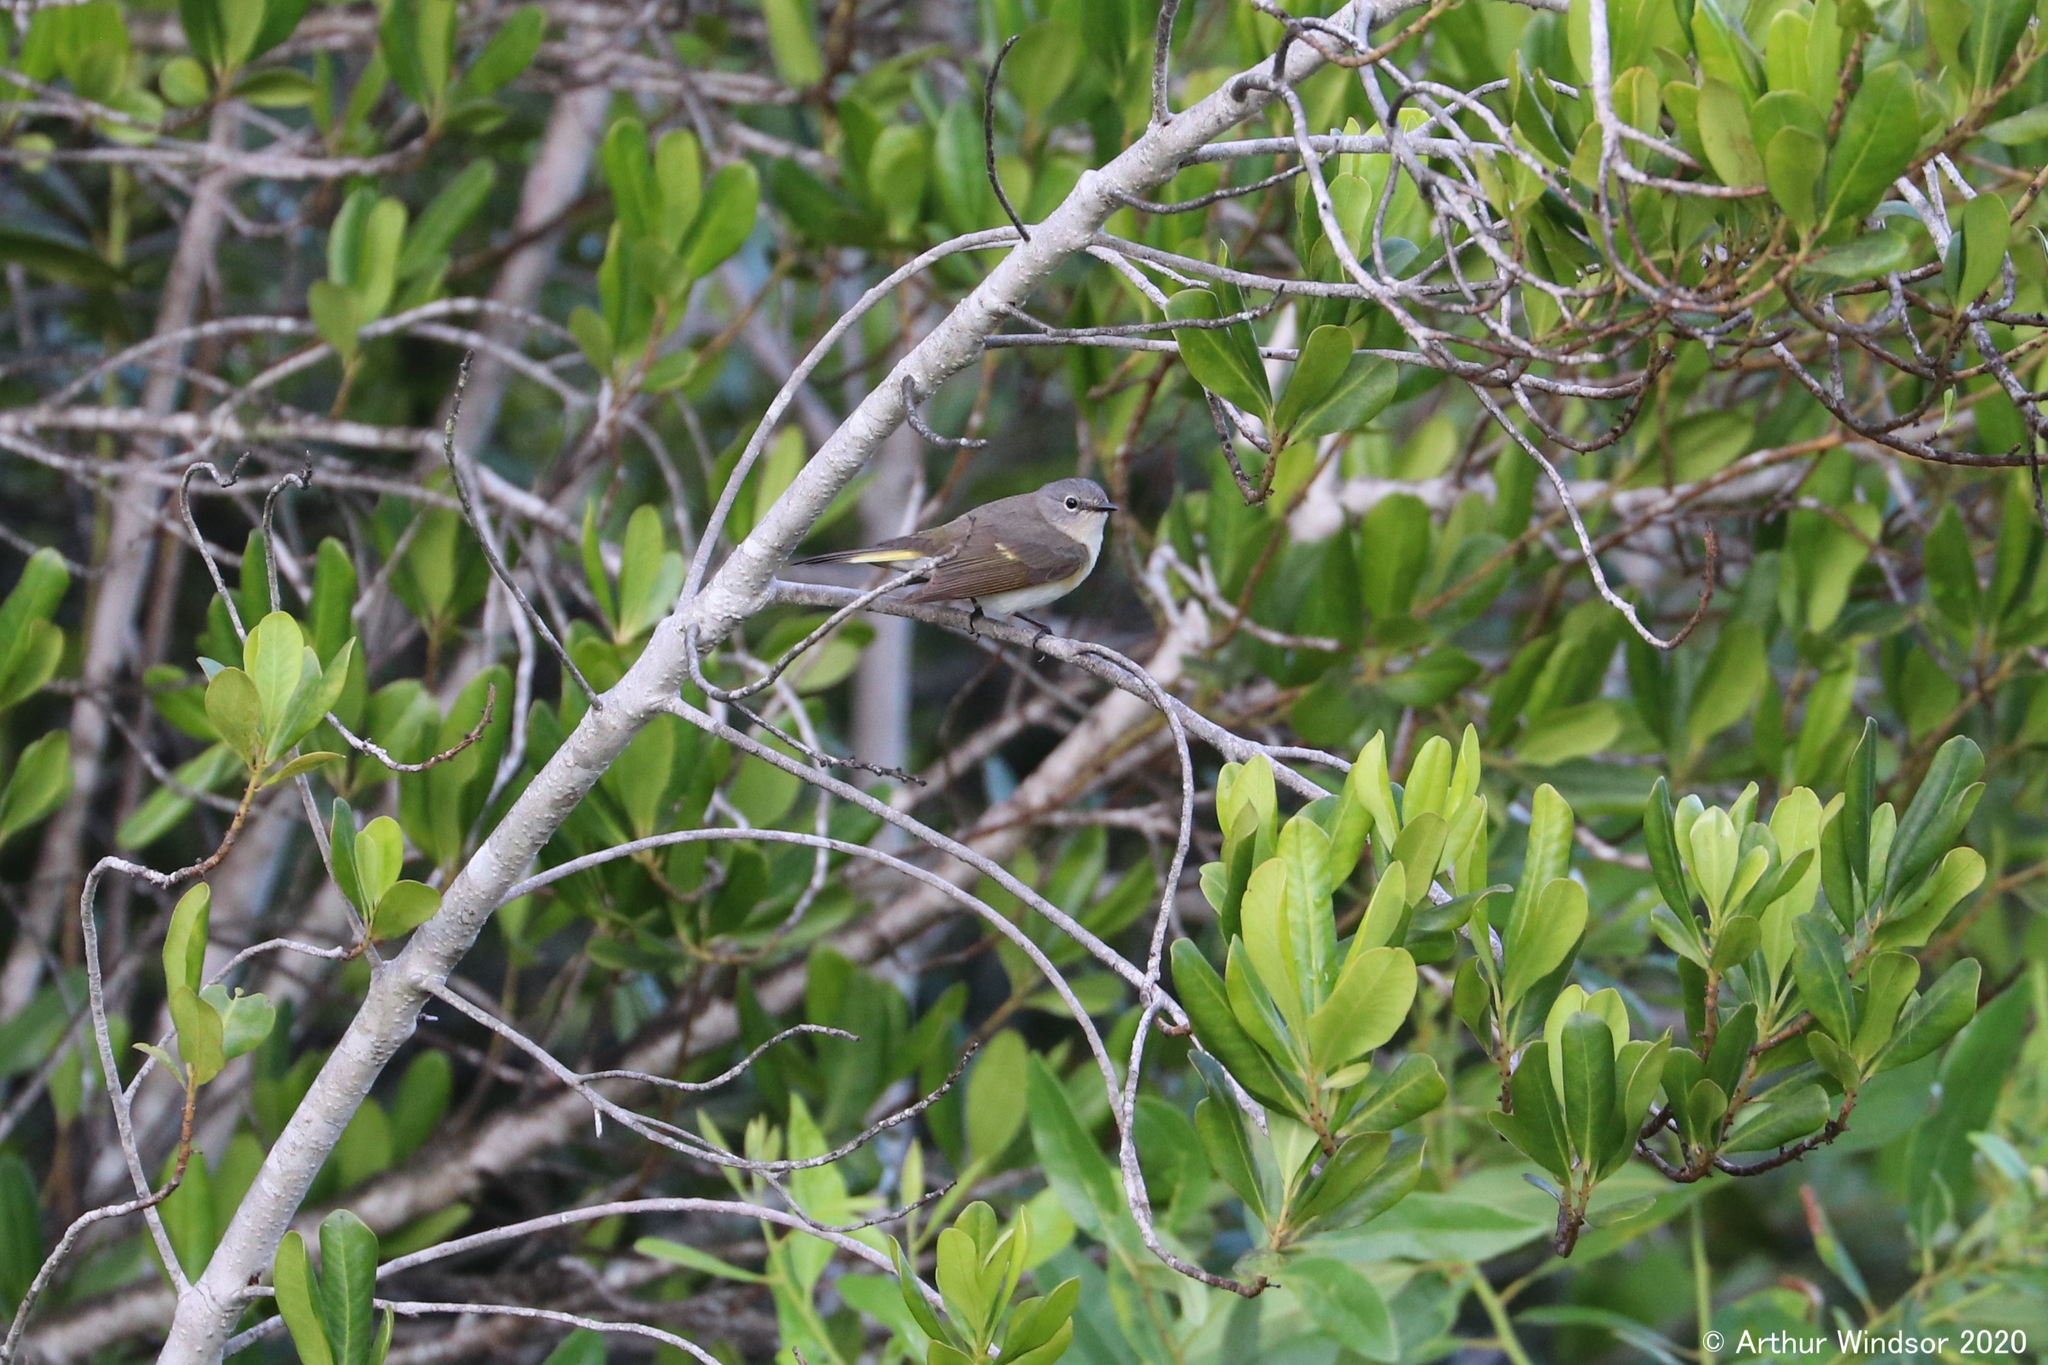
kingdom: Animalia
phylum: Chordata
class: Aves
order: Passeriformes
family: Parulidae
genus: Setophaga
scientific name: Setophaga ruticilla
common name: American redstart
